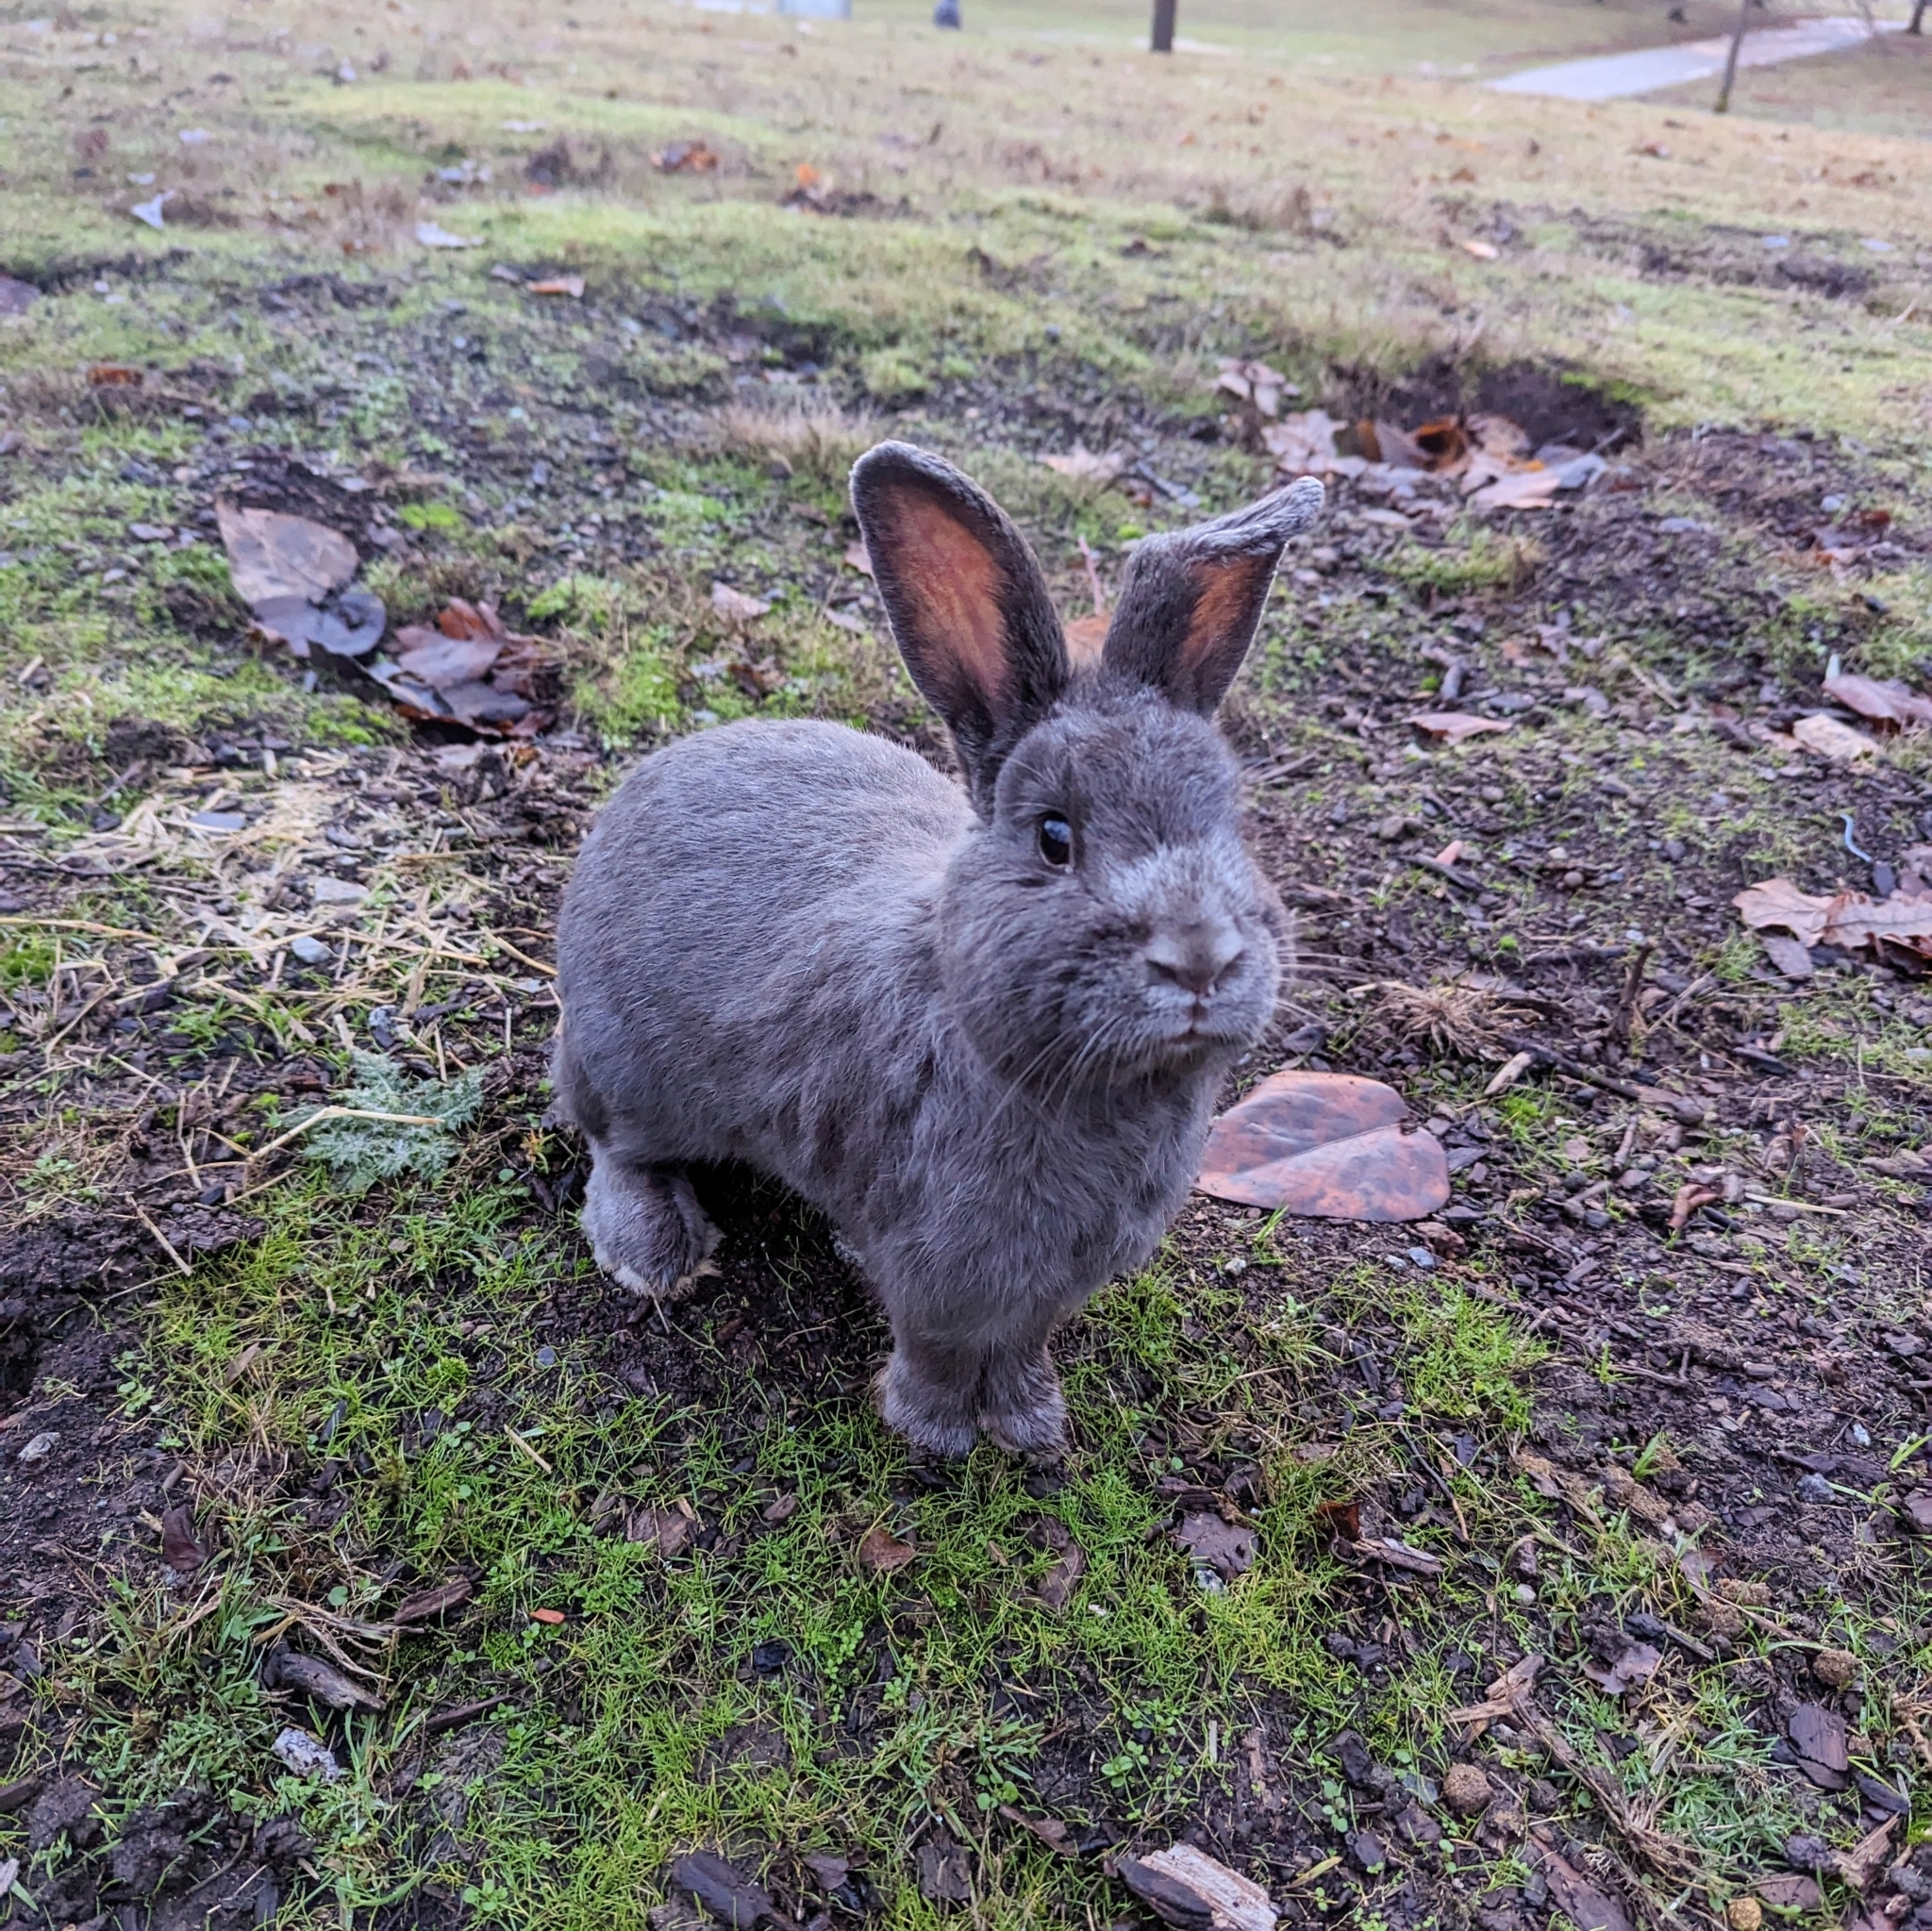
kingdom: Animalia
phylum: Chordata
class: Mammalia
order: Lagomorpha
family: Leporidae
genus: Oryctolagus
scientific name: Oryctolagus cuniculus
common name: European rabbit
